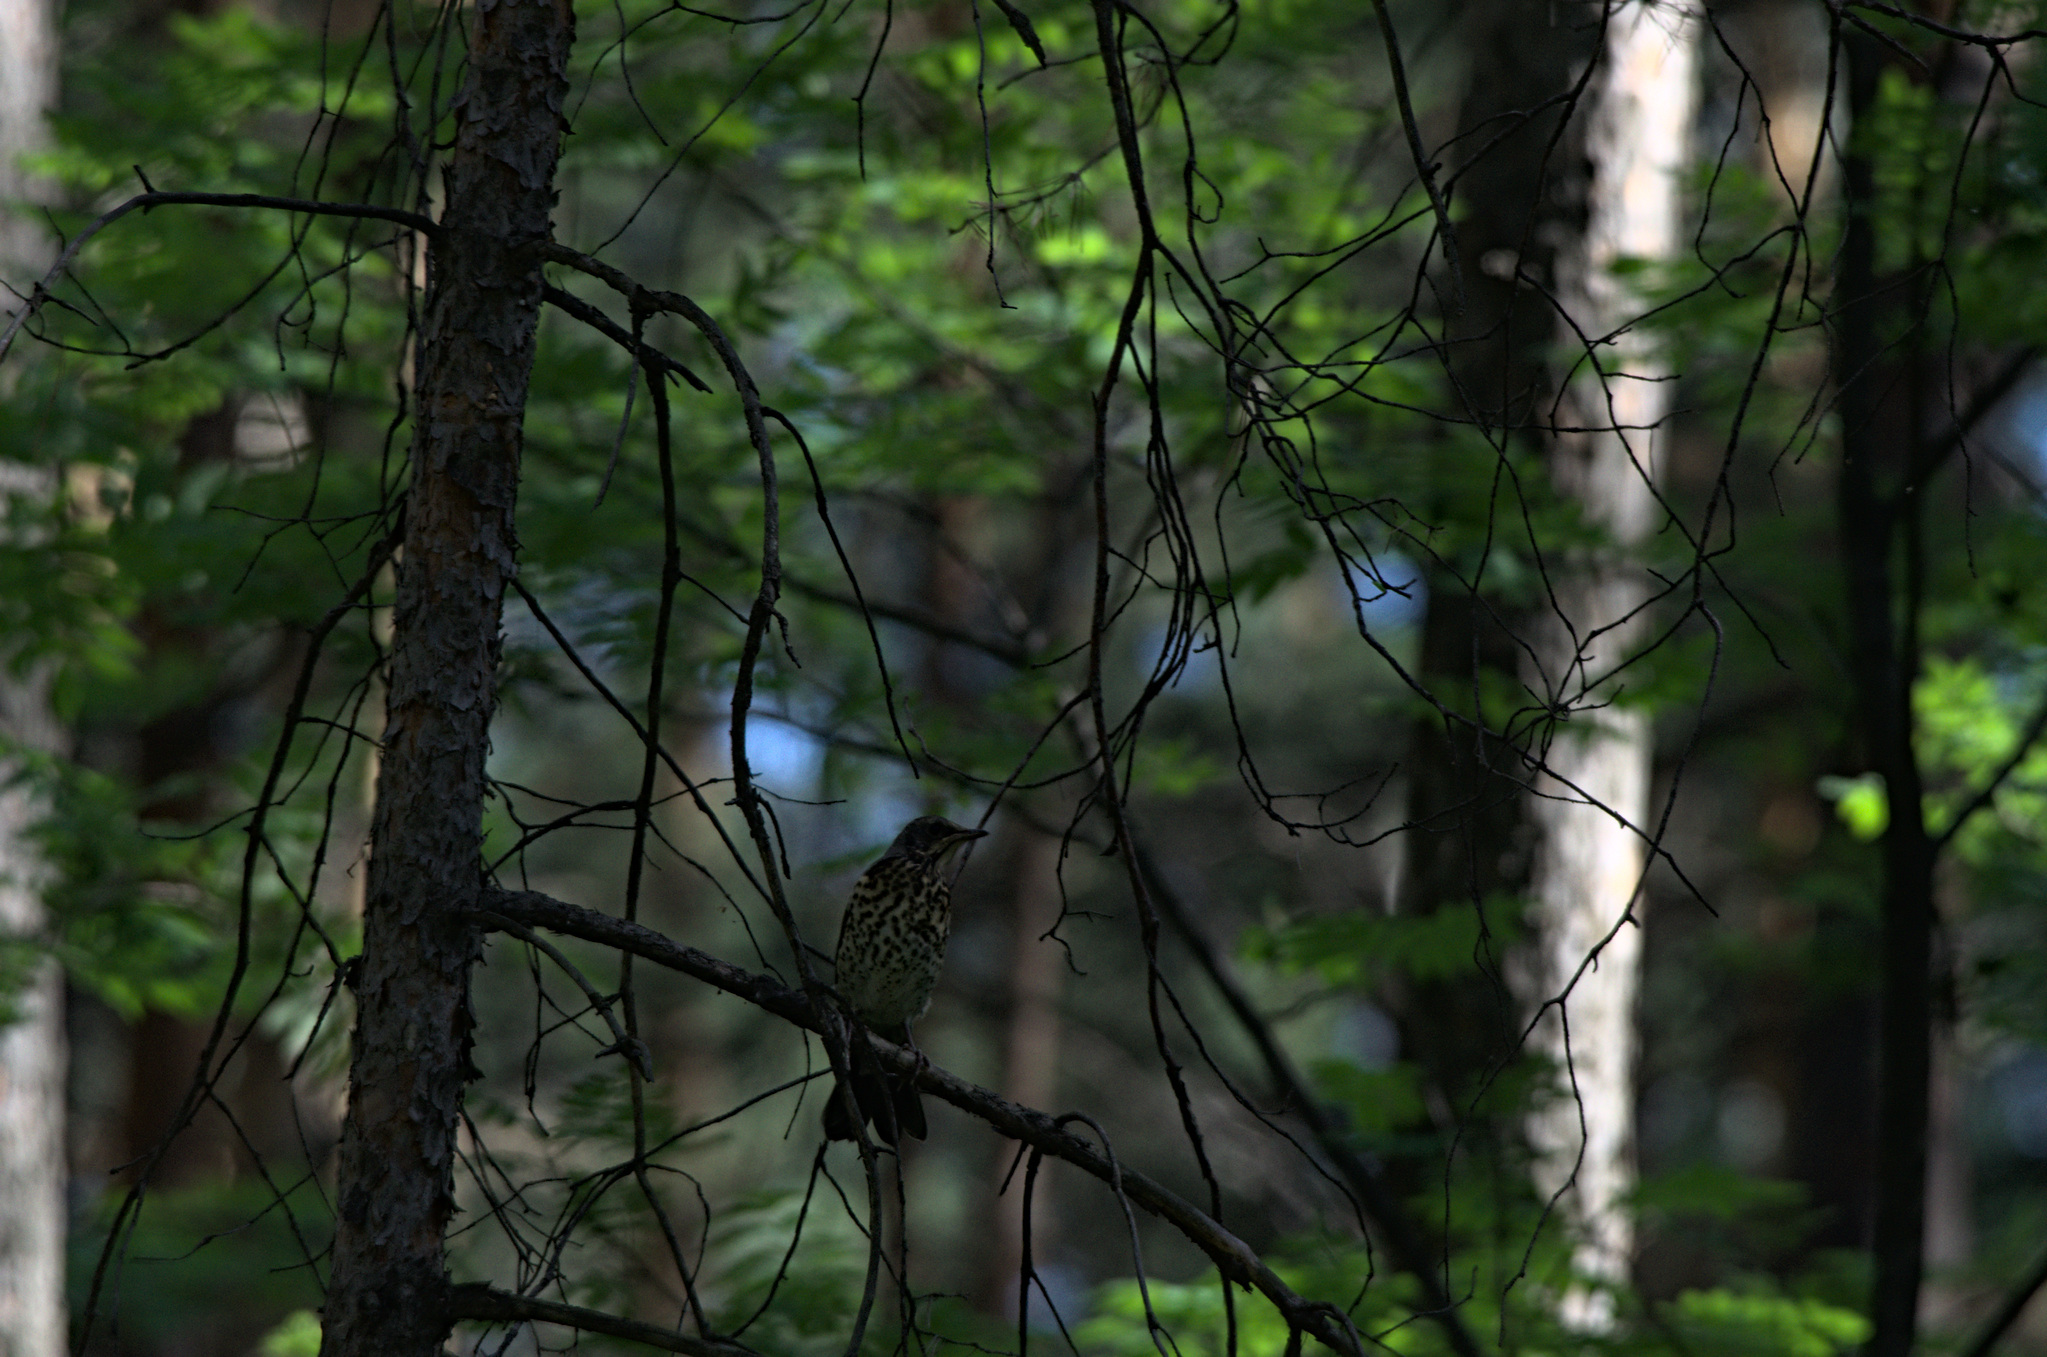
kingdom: Animalia
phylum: Chordata
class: Aves
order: Passeriformes
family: Turdidae
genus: Turdus
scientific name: Turdus pilaris
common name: Fieldfare
